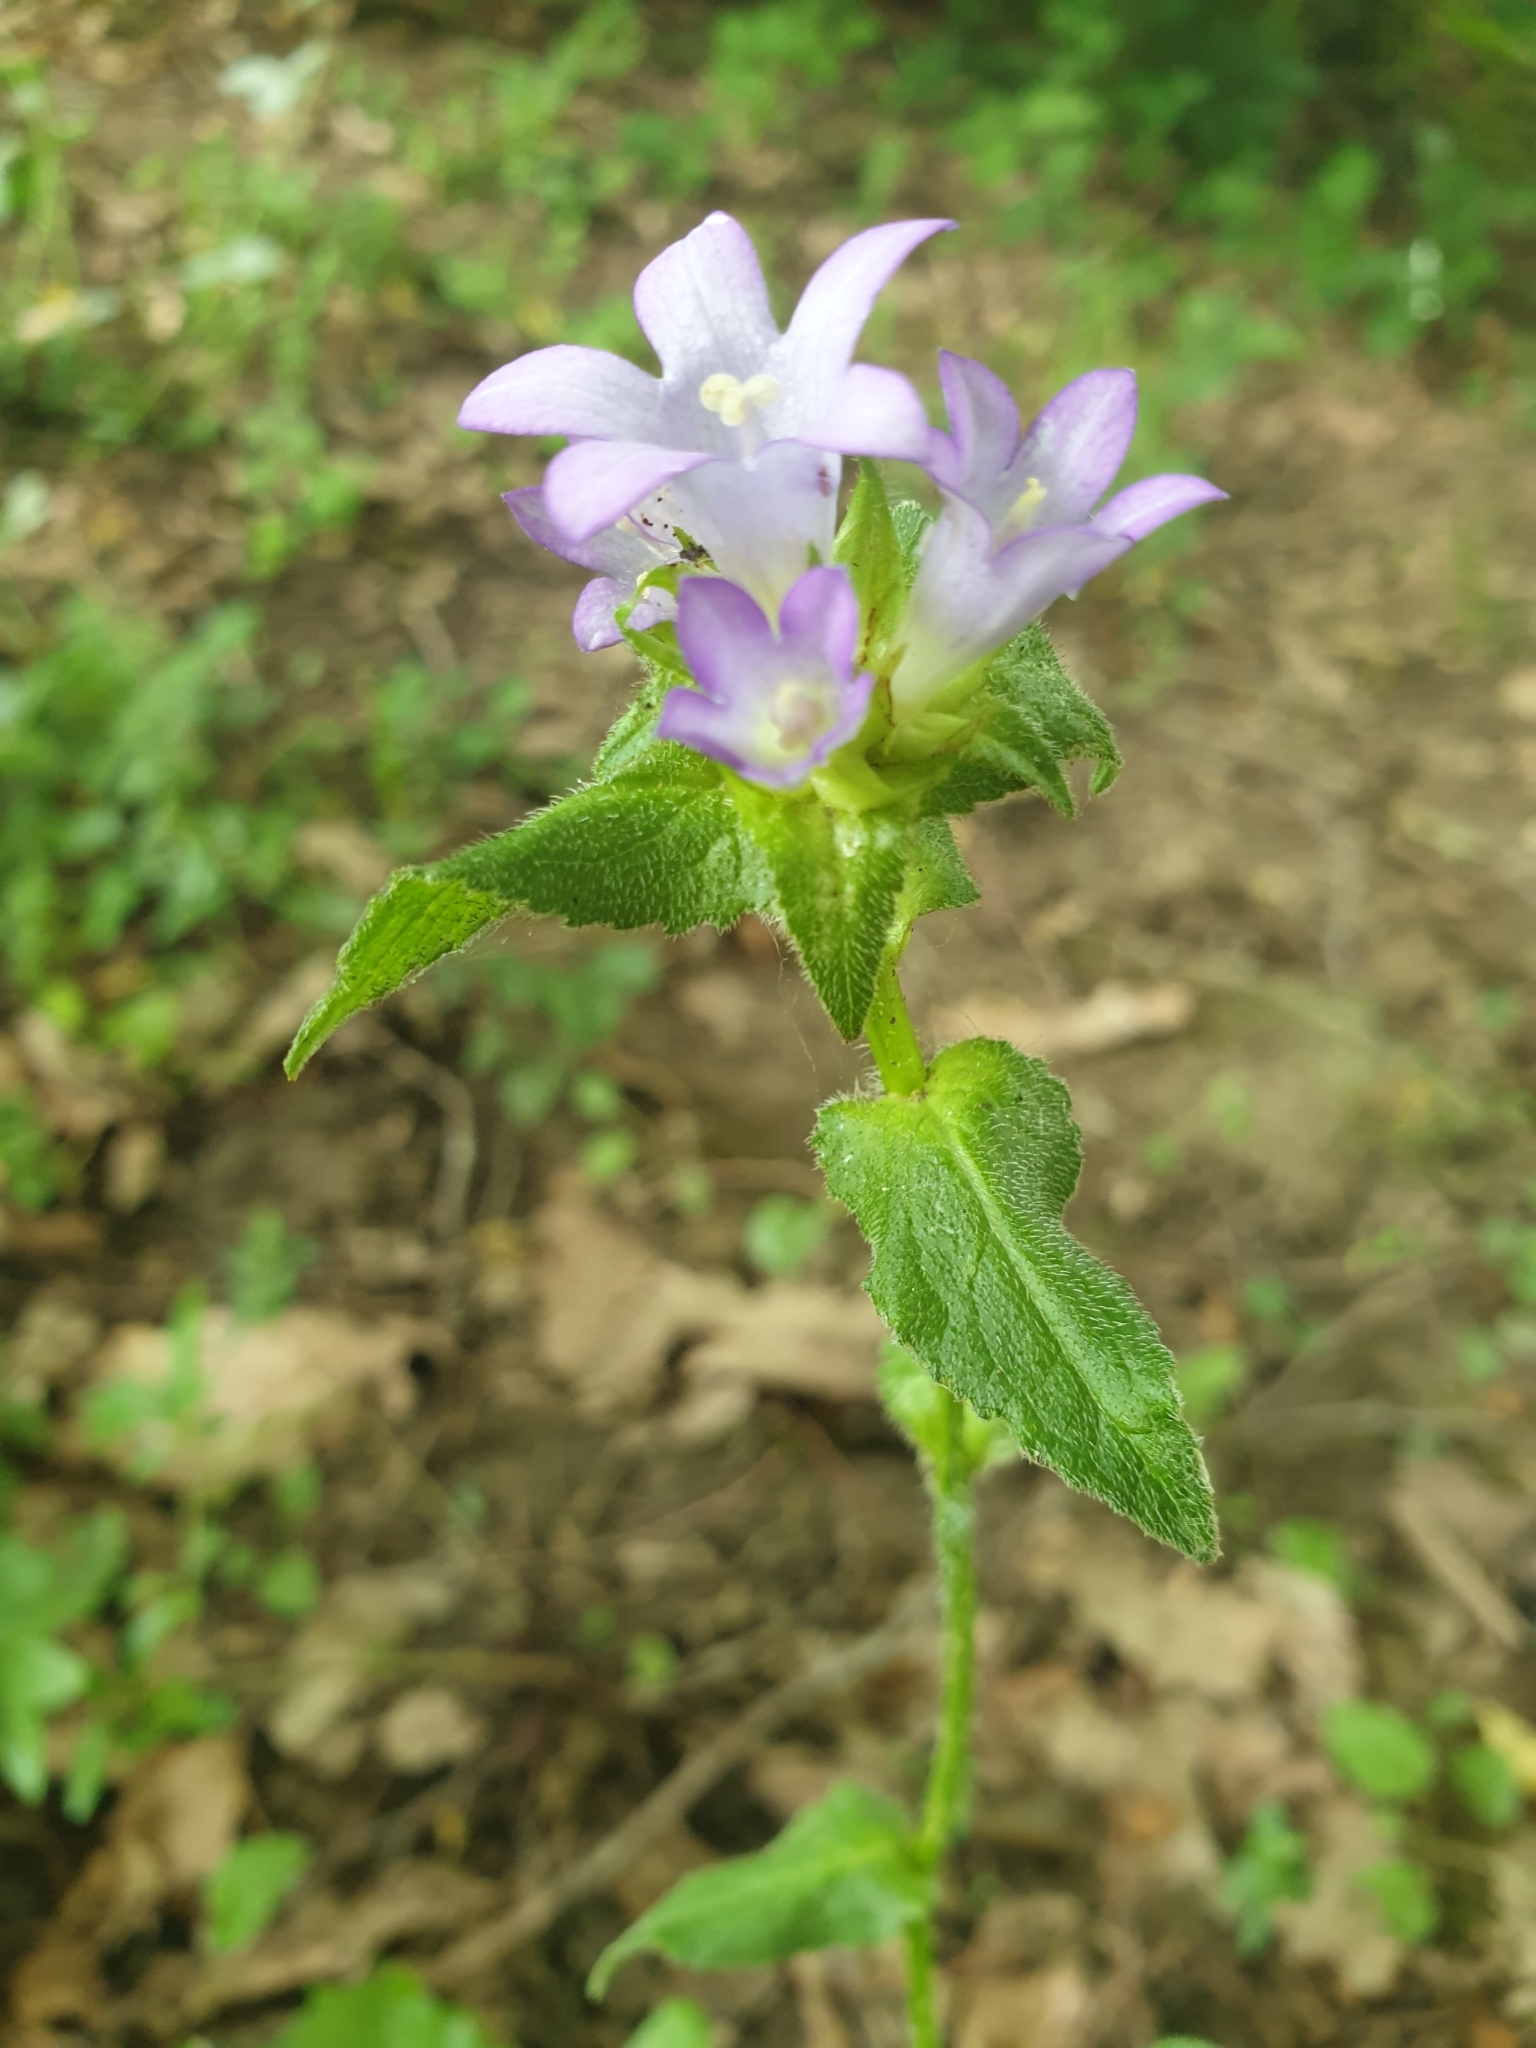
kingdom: Plantae
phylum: Tracheophyta
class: Magnoliopsida
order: Asterales
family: Campanulaceae
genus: Campanula
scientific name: Campanula glomerata
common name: Clustered bellflower
